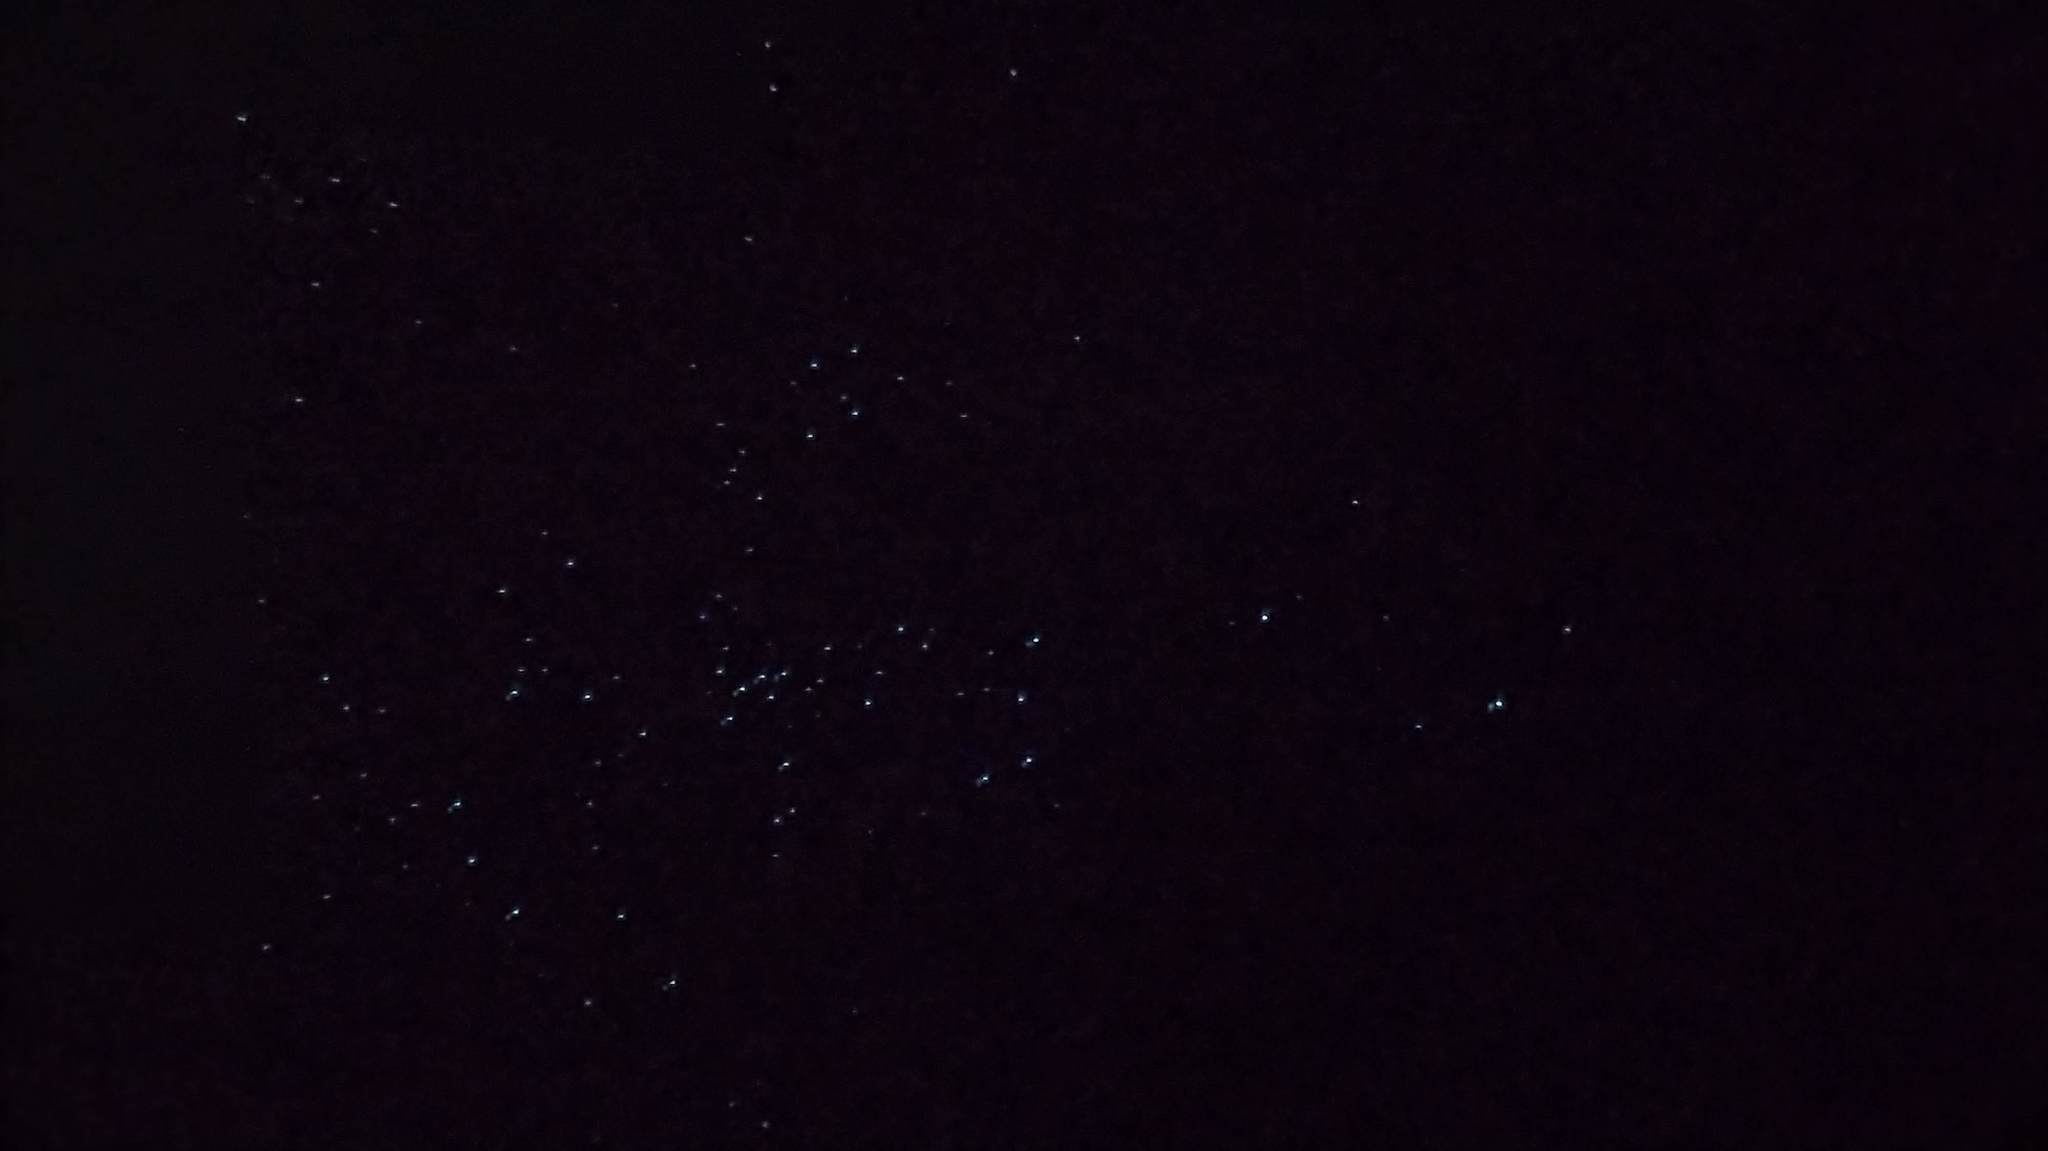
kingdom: Animalia
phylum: Arthropoda
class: Insecta
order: Diptera
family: Keroplatidae
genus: Arachnocampa
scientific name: Arachnocampa luminosa
